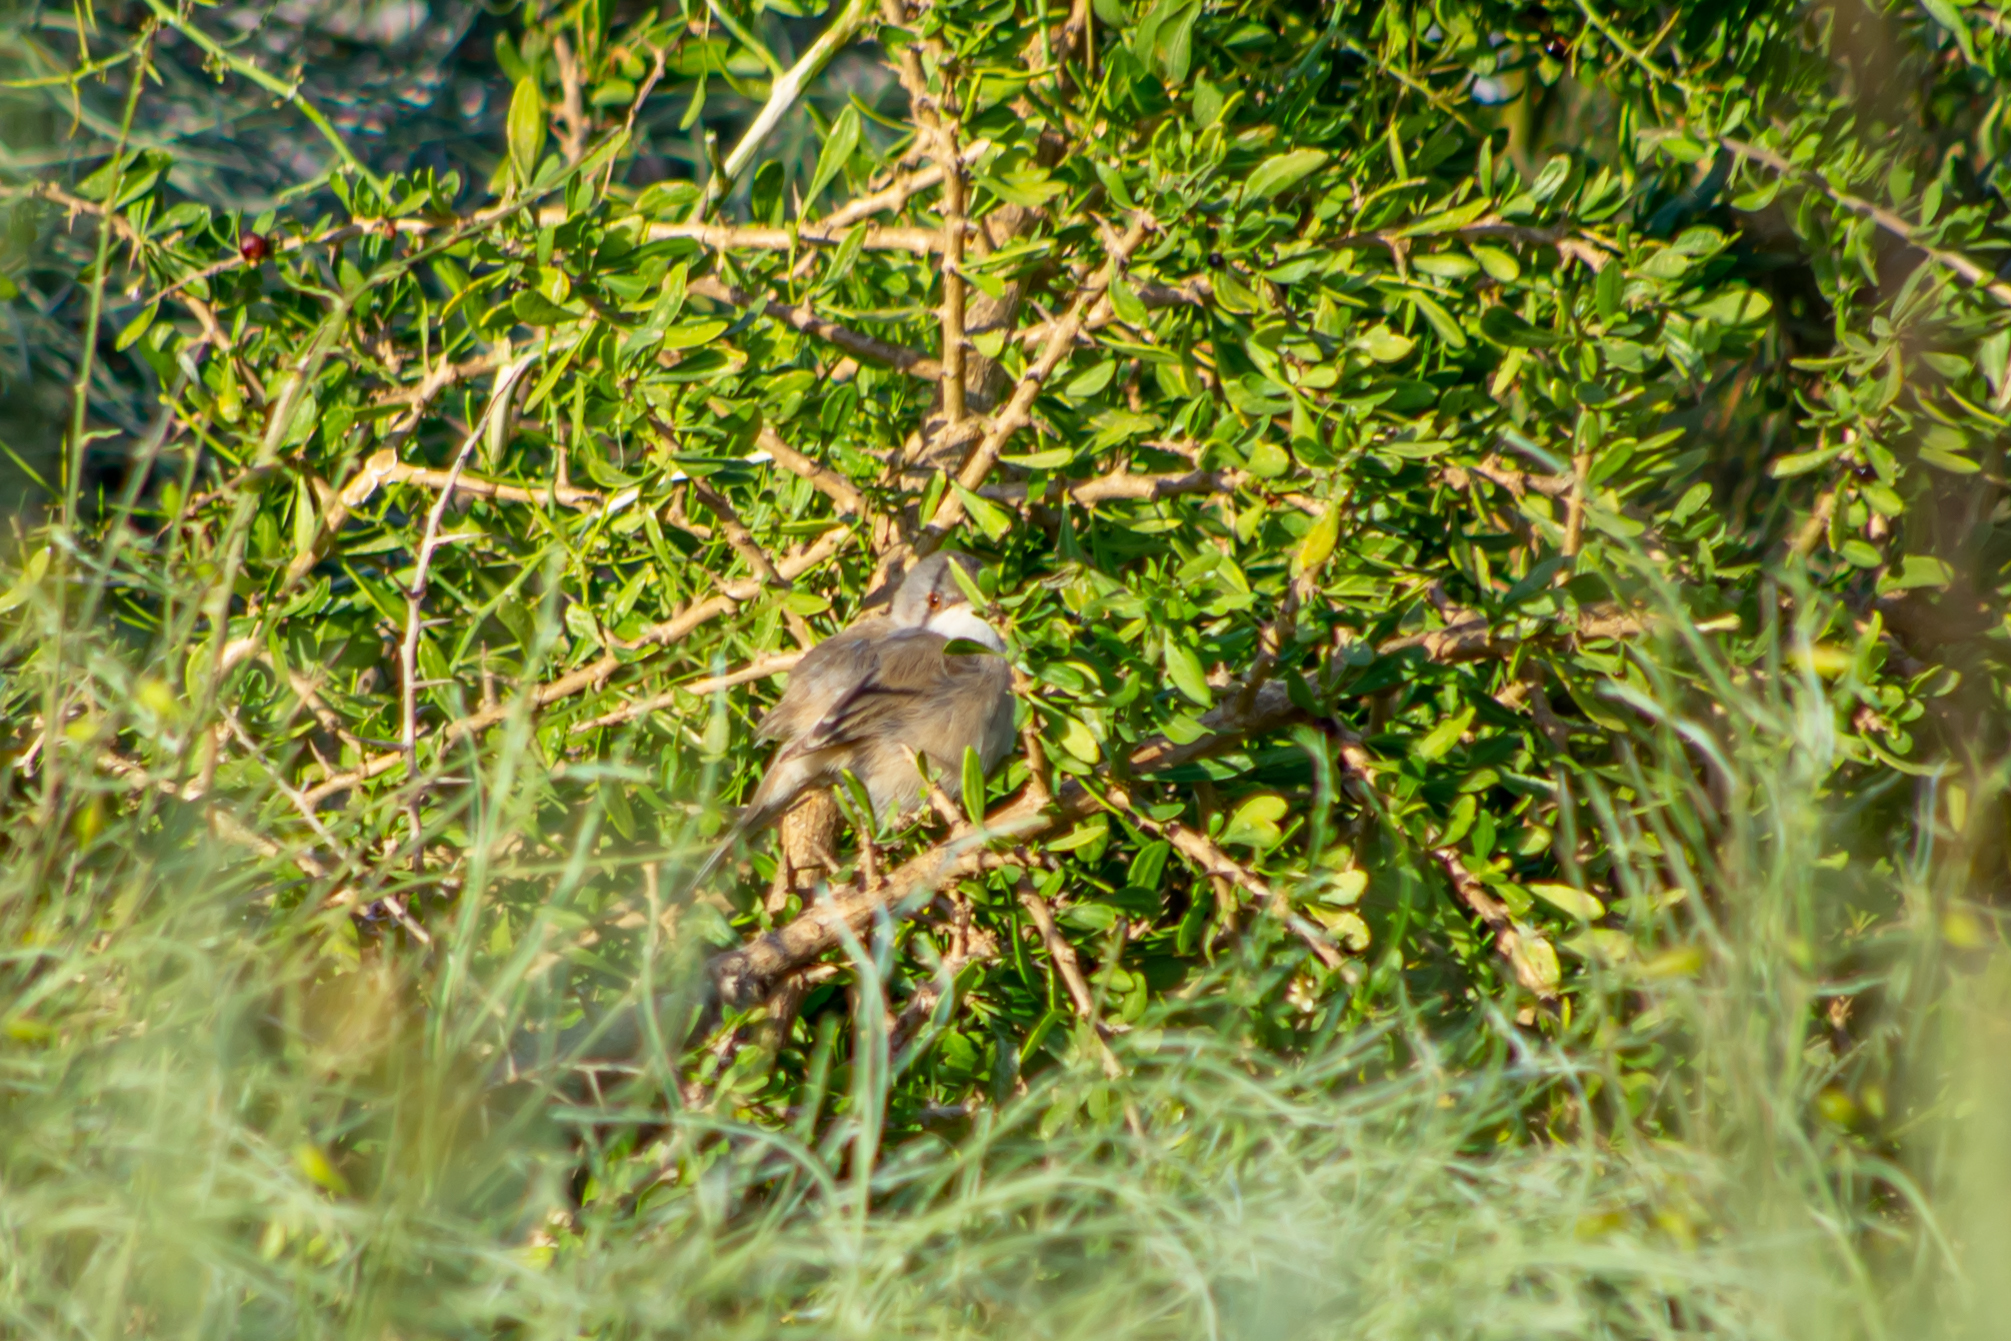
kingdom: Animalia
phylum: Chordata
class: Aves
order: Passeriformes
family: Sylviidae
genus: Curruca
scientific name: Curruca melanocephala
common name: Sardinian warbler
